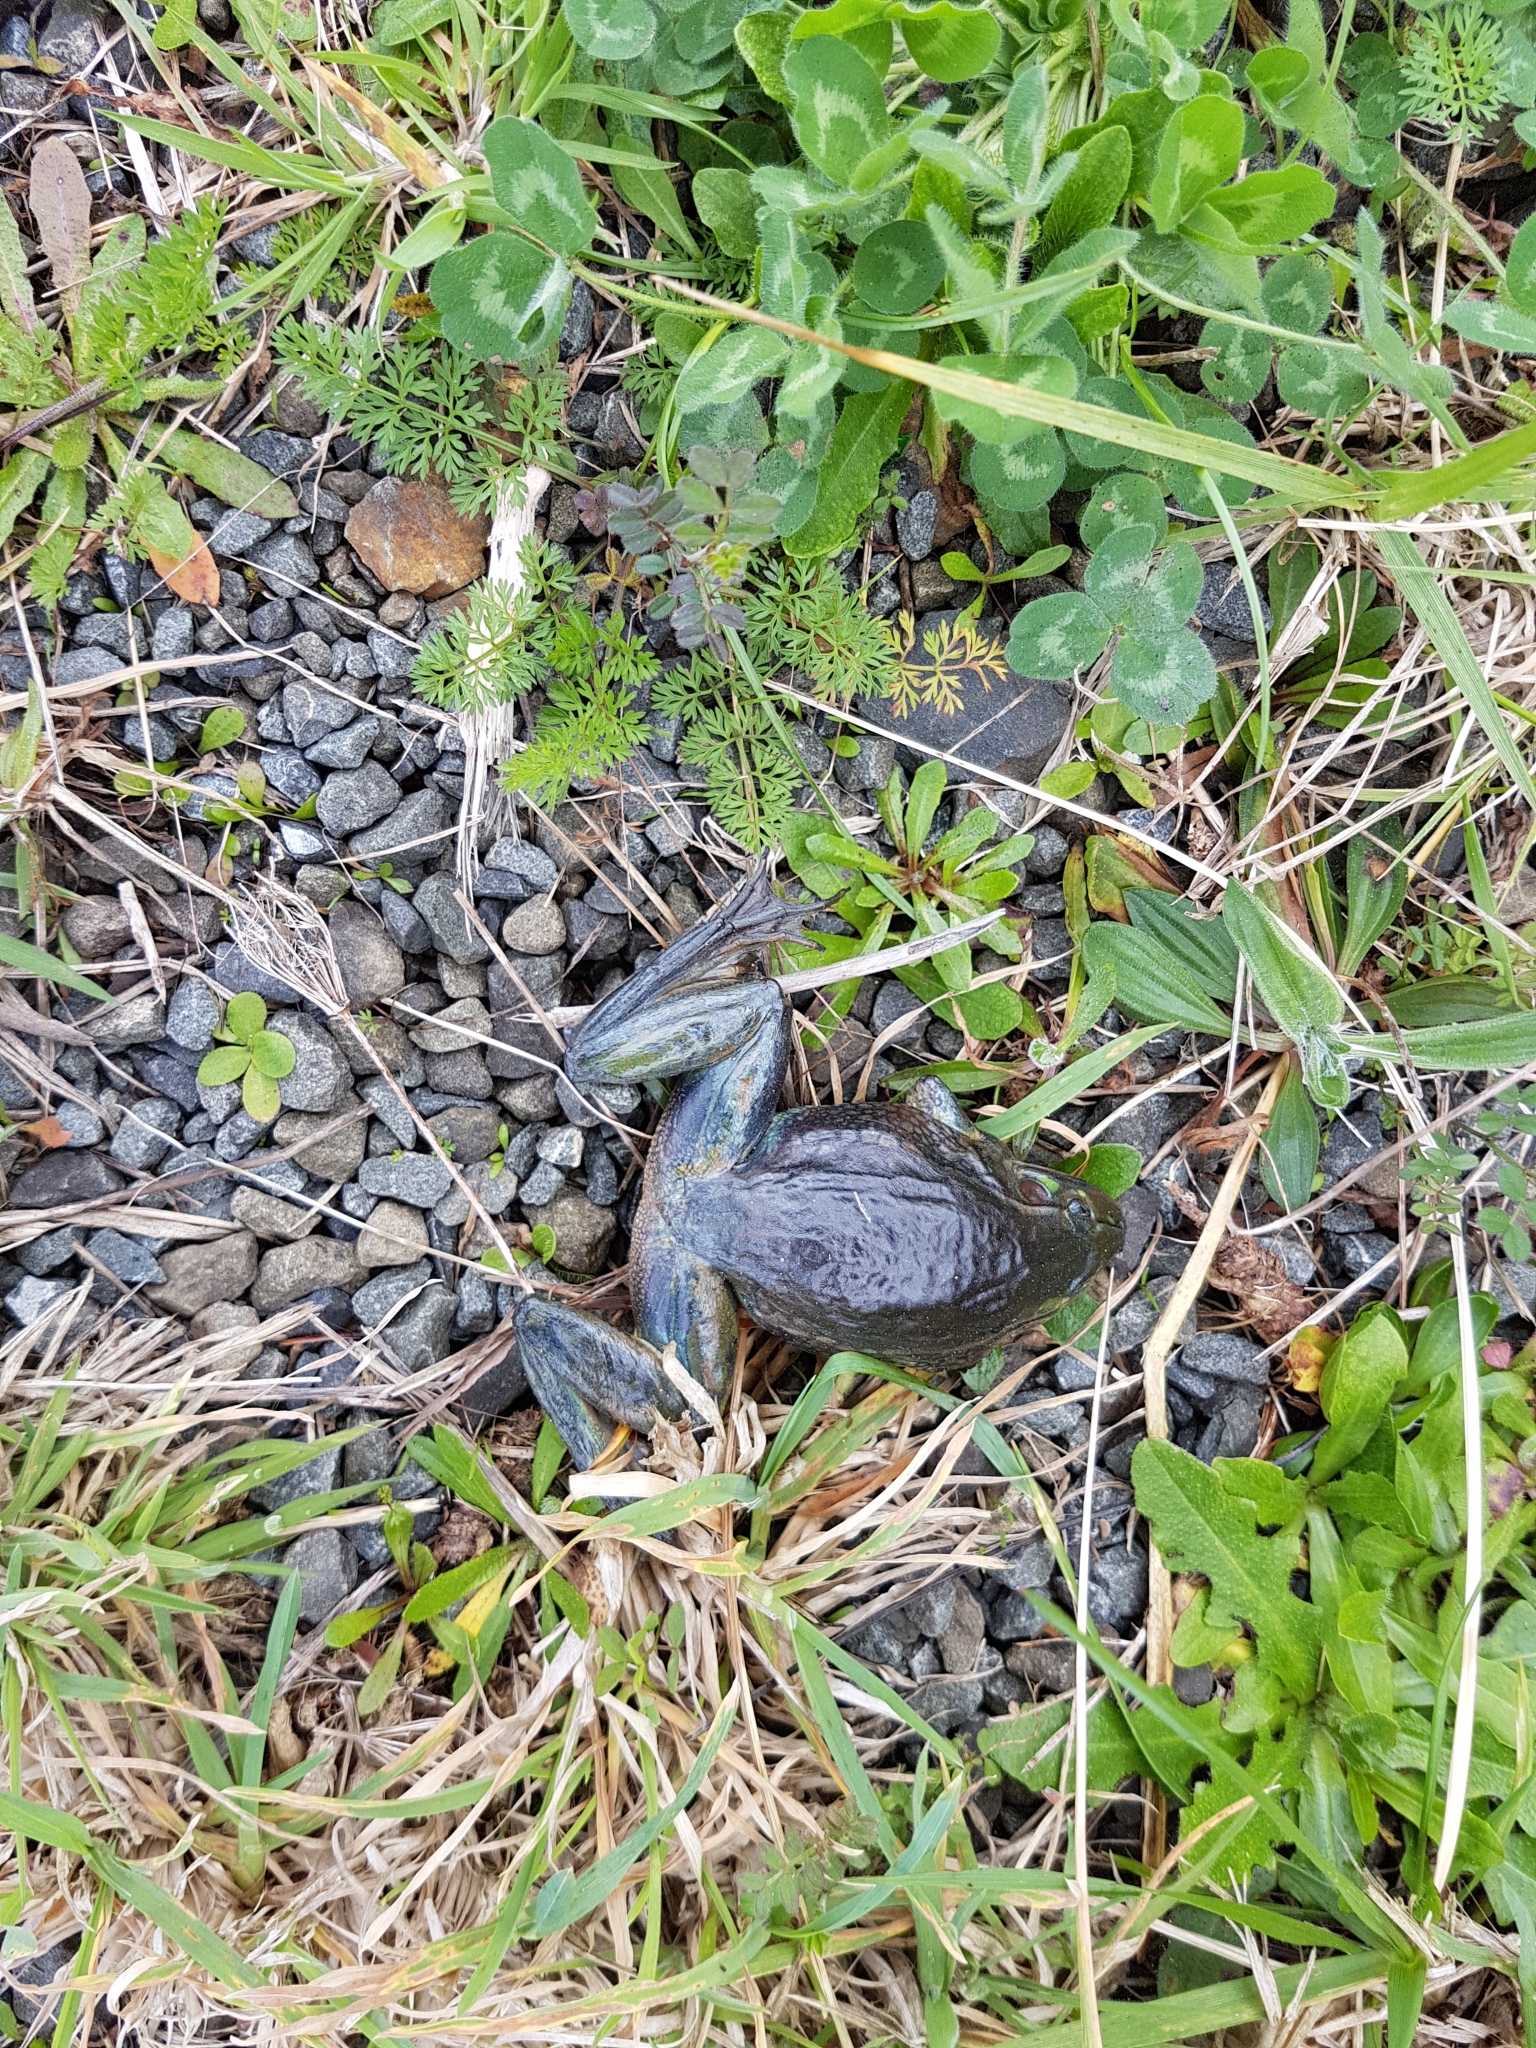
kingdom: Animalia
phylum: Chordata
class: Amphibia
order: Anura
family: Pelodryadidae
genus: Ranoidea
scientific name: Ranoidea raniformis
